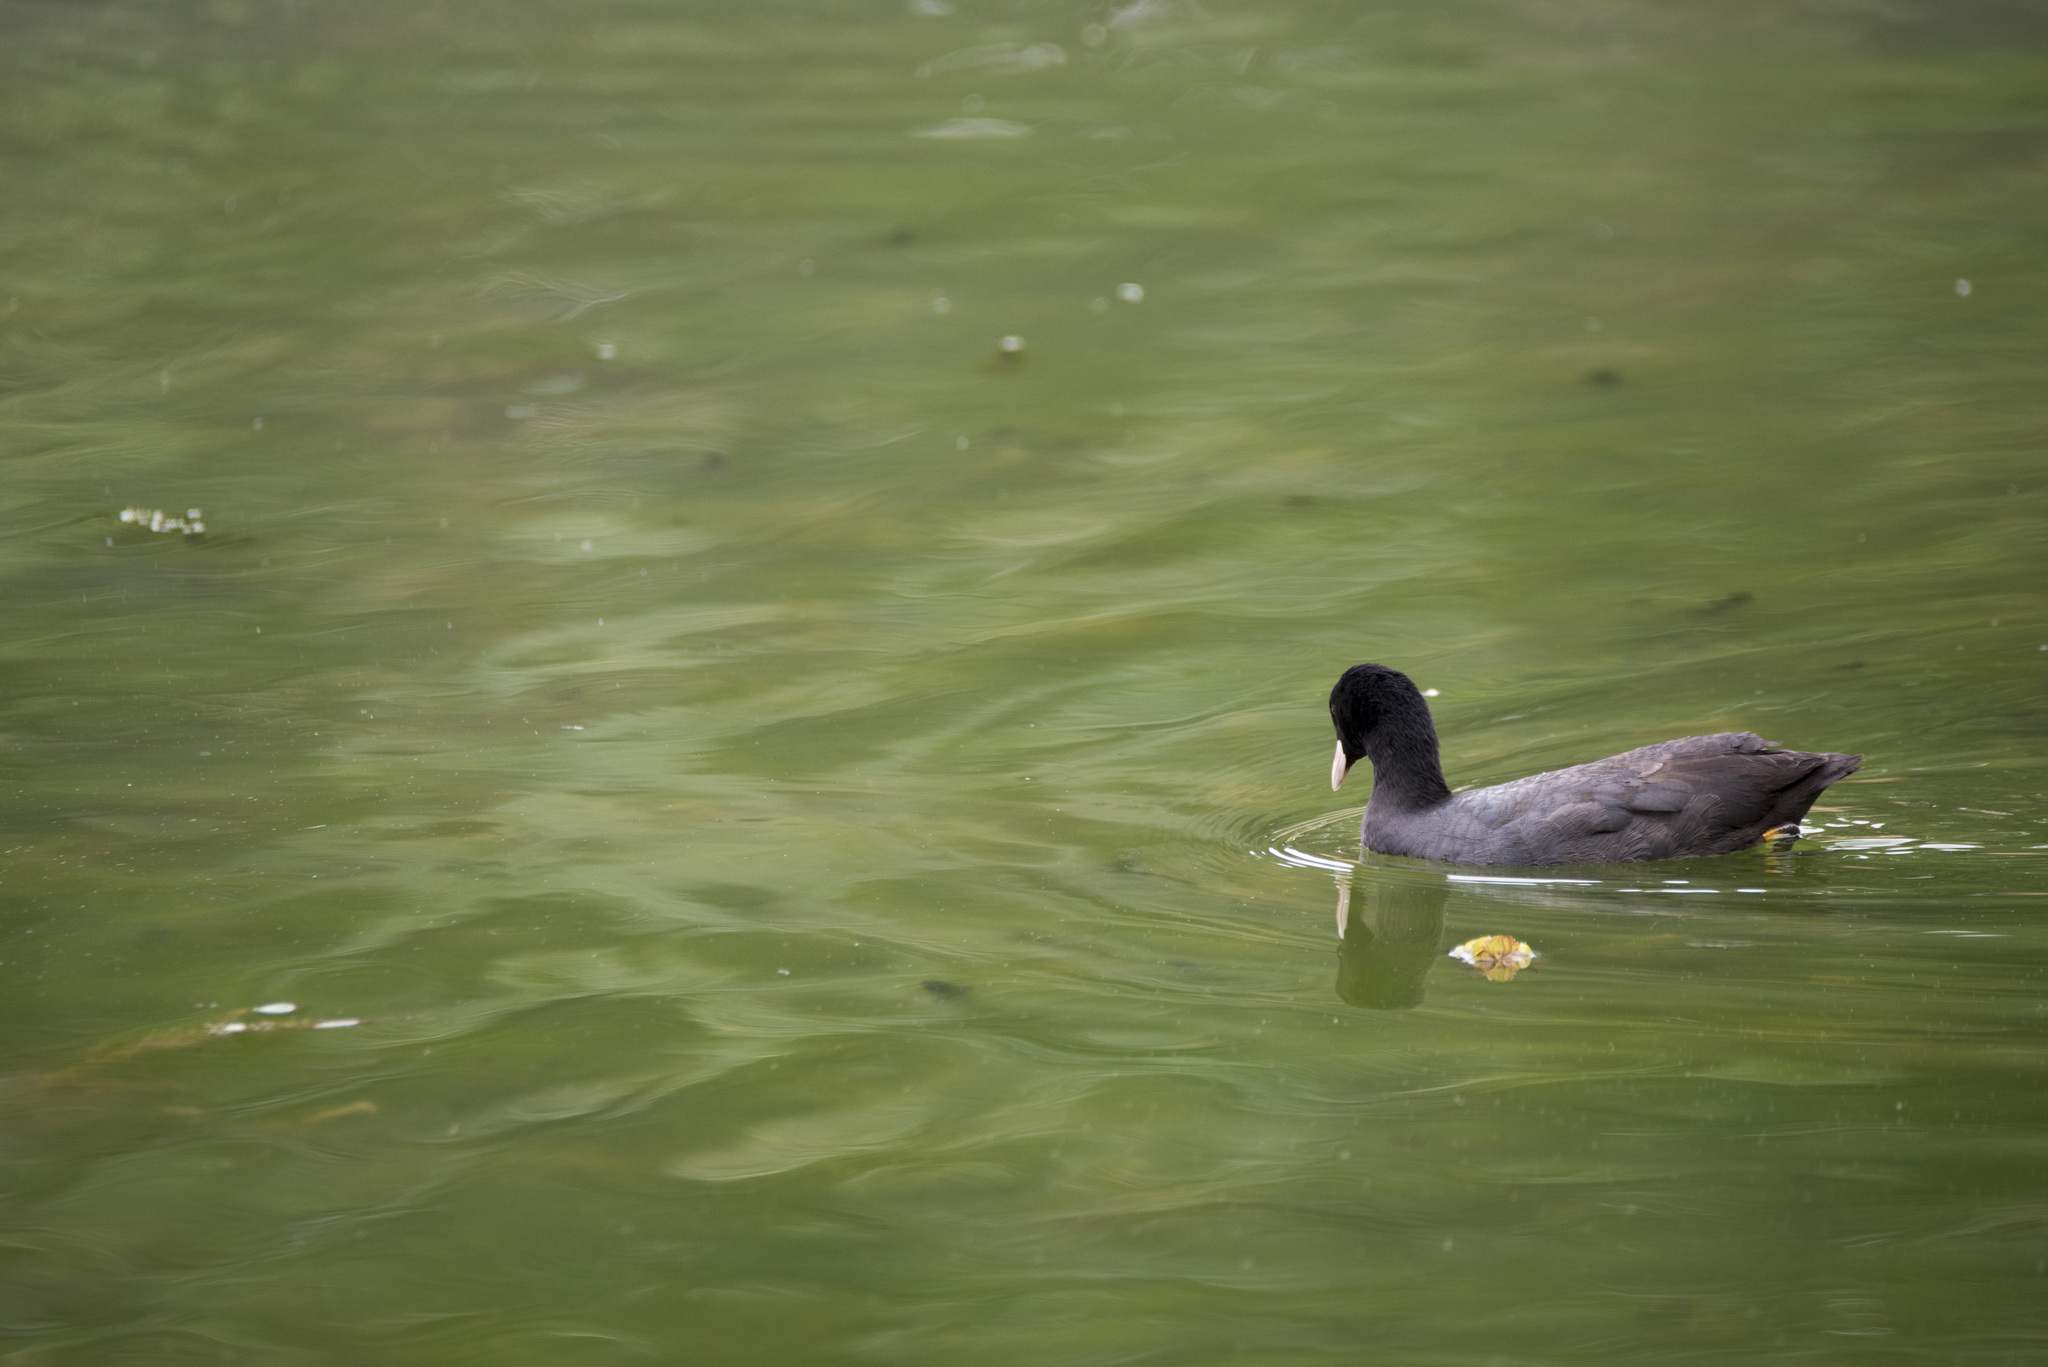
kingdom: Animalia
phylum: Chordata
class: Aves
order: Gruiformes
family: Rallidae
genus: Fulica
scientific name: Fulica atra
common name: Eurasian coot
